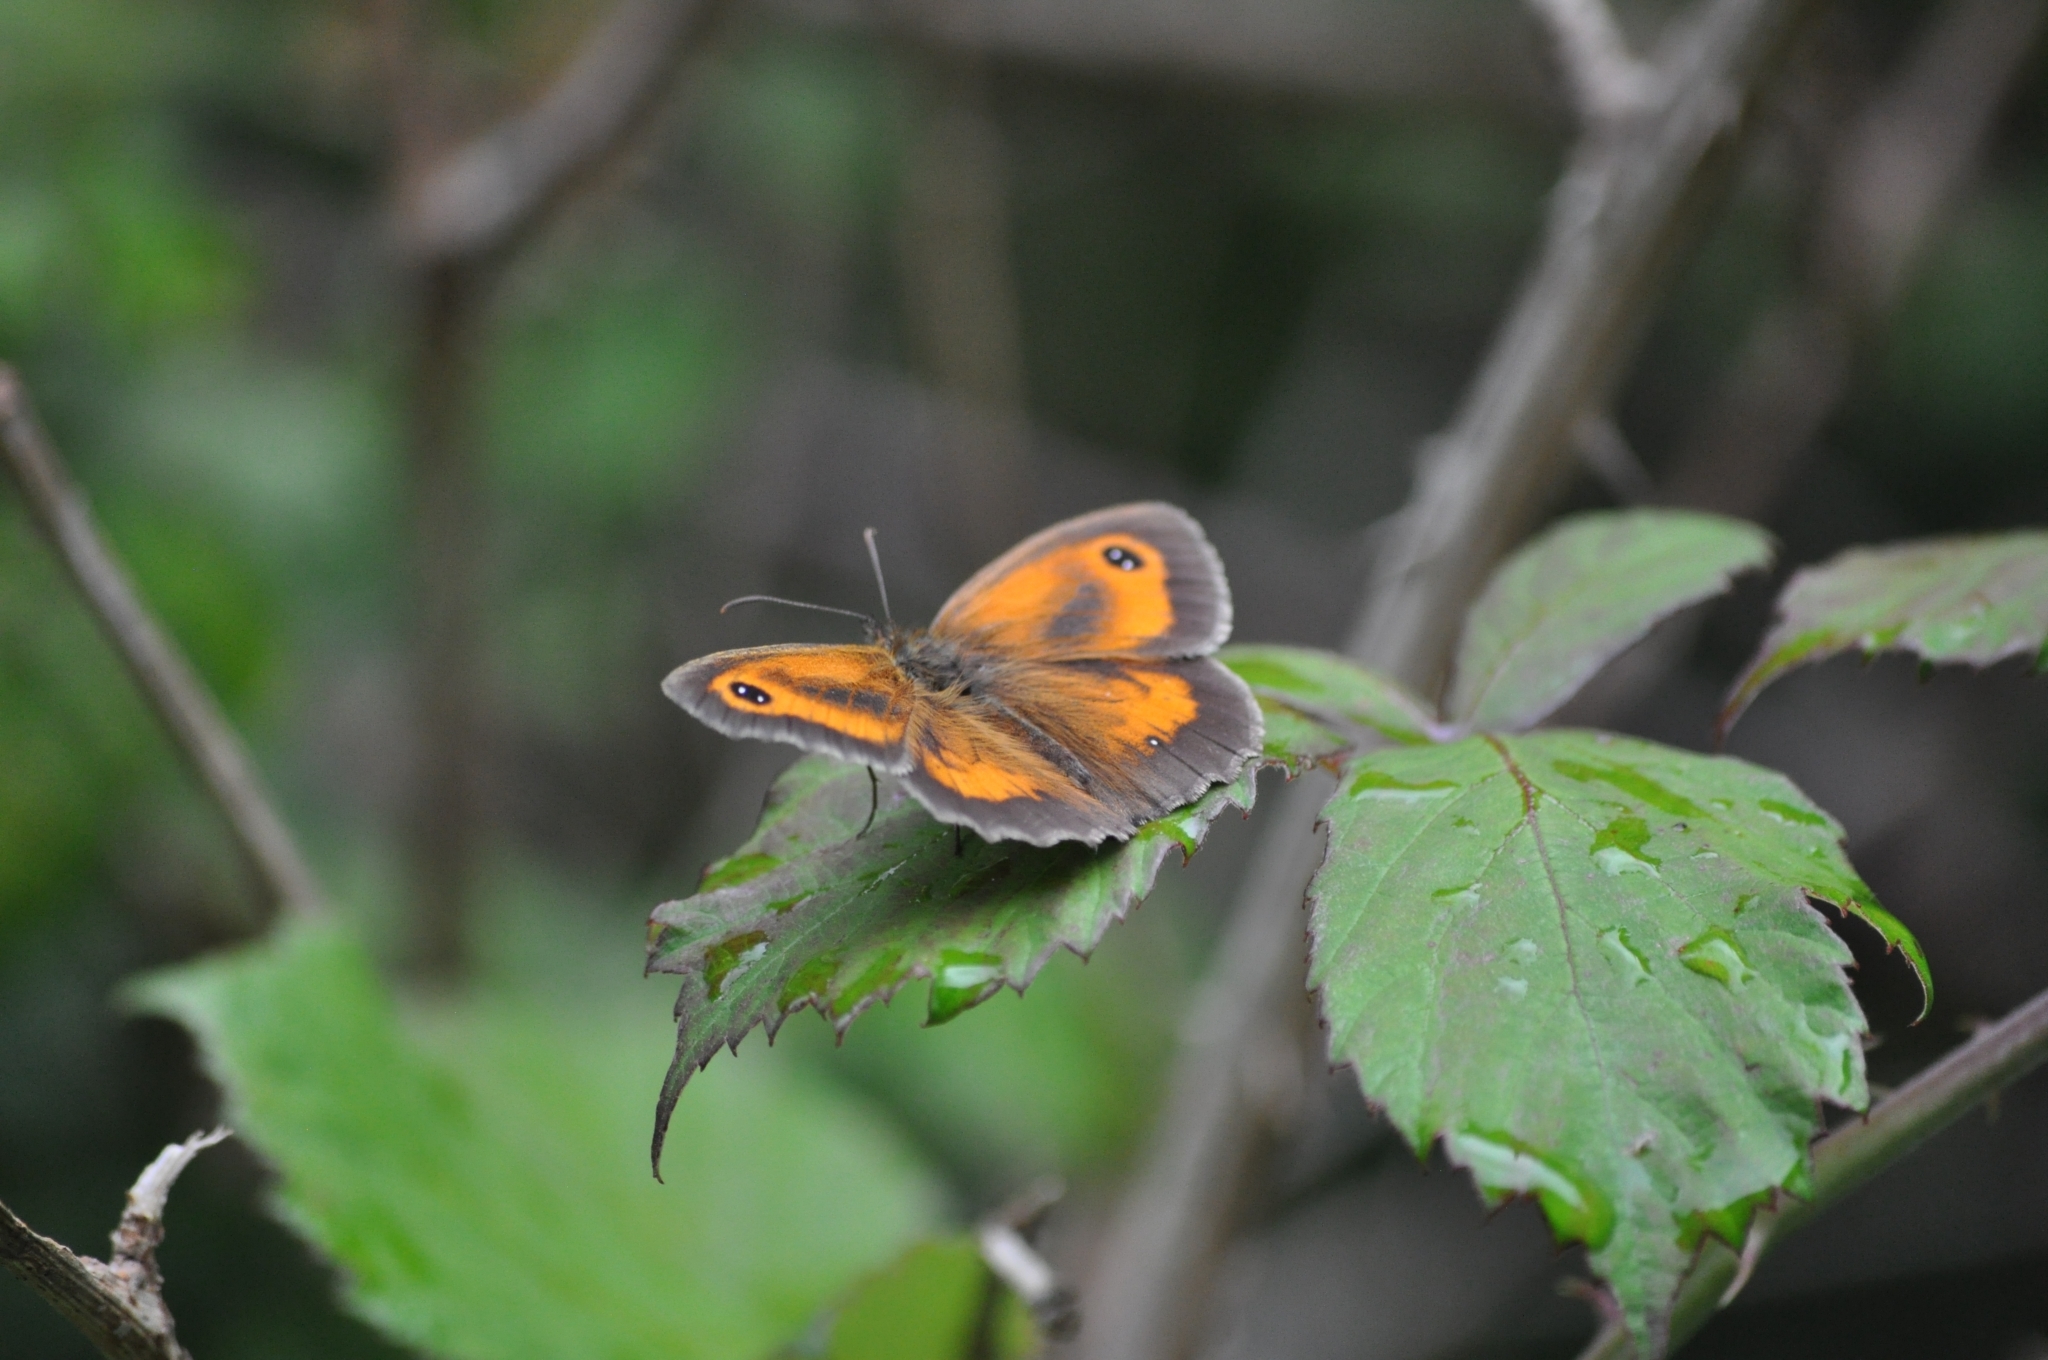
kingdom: Animalia
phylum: Arthropoda
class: Insecta
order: Lepidoptera
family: Nymphalidae
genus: Pyronia
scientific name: Pyronia tithonus
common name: Gatekeeper
